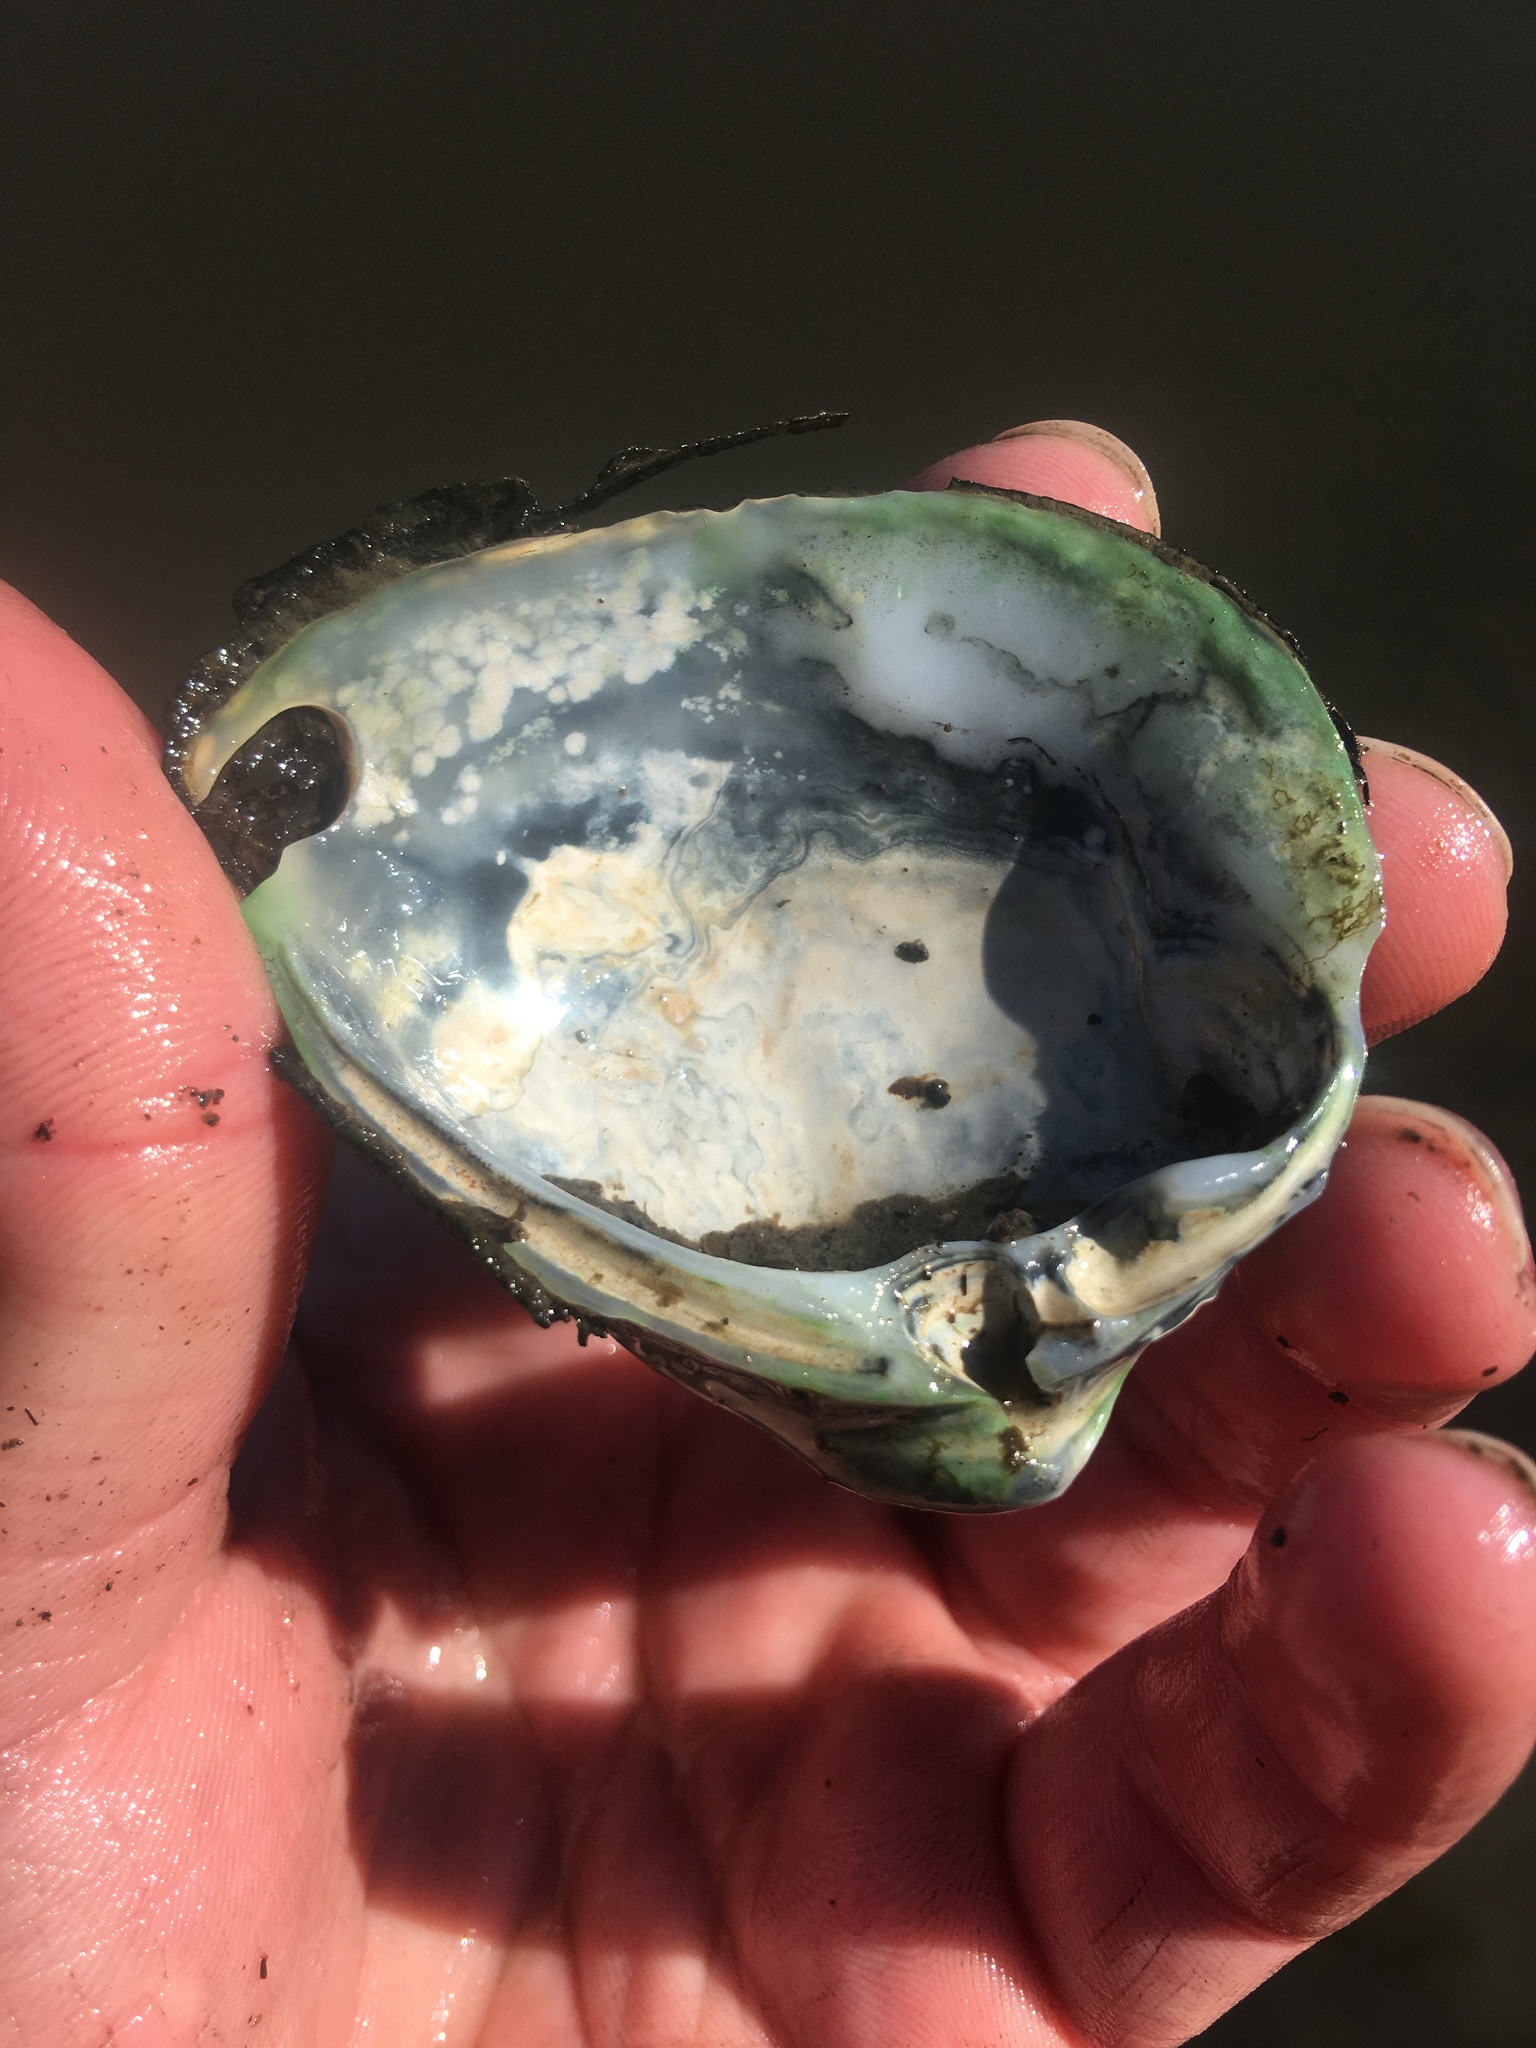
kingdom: Animalia
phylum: Mollusca
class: Bivalvia
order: Venerida
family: Mactridae
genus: Rangia
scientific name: Rangia cuneata
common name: Atlantic rangia
